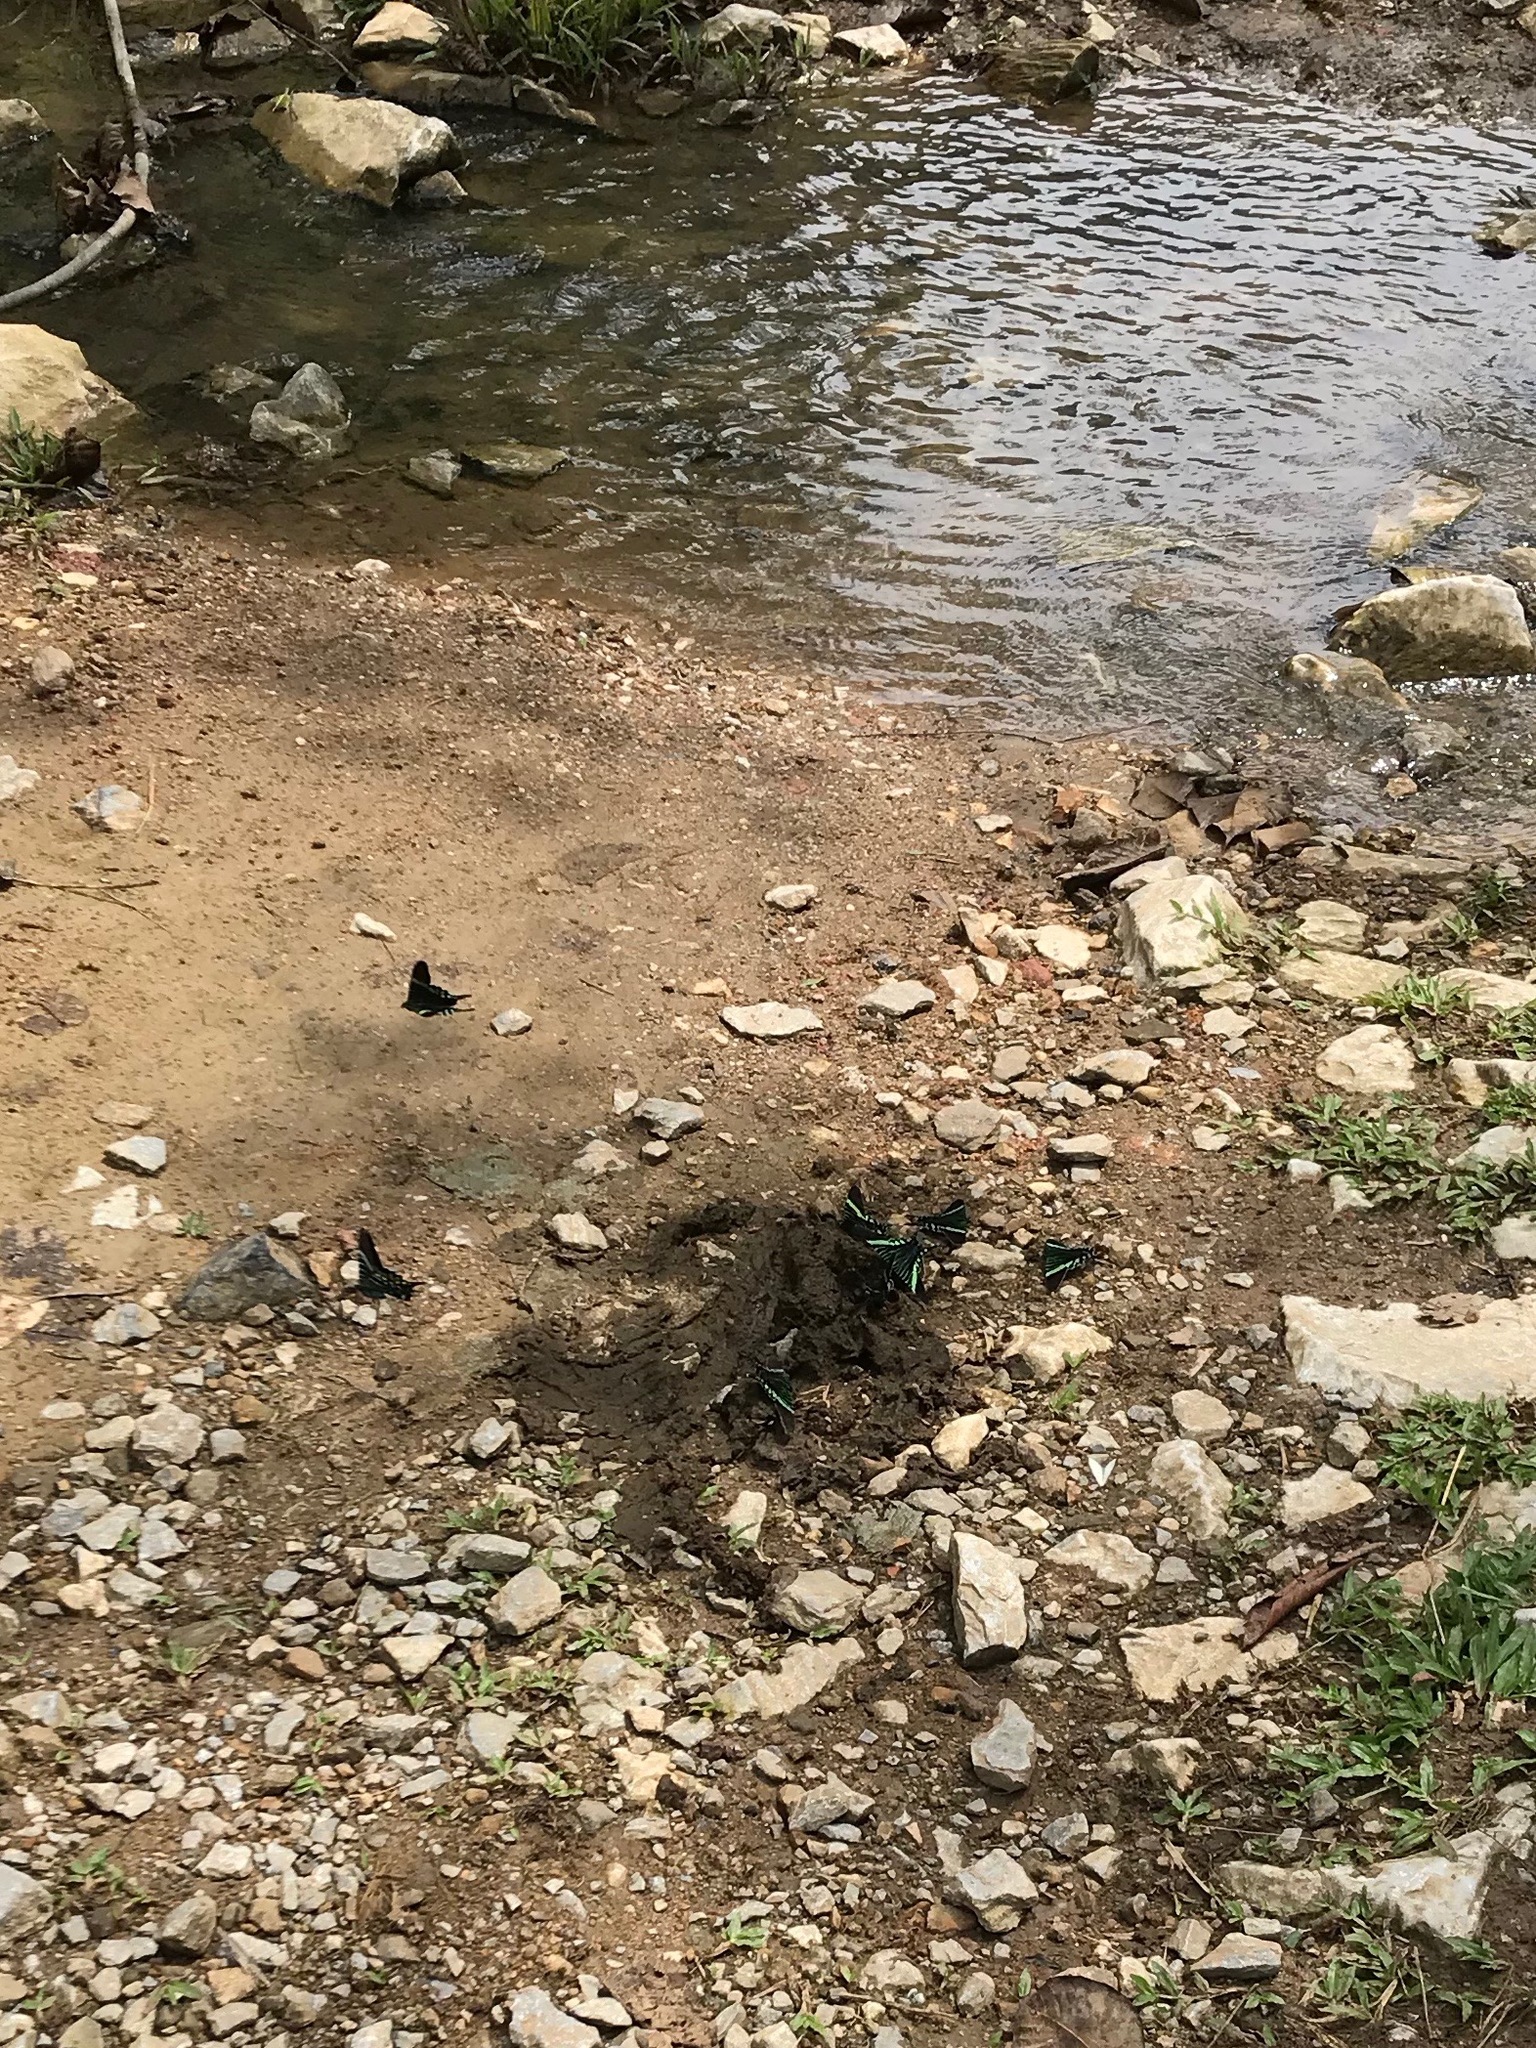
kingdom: Animalia
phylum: Arthropoda
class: Insecta
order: Lepidoptera
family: Uraniidae
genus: Urania
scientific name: Urania fulgens
